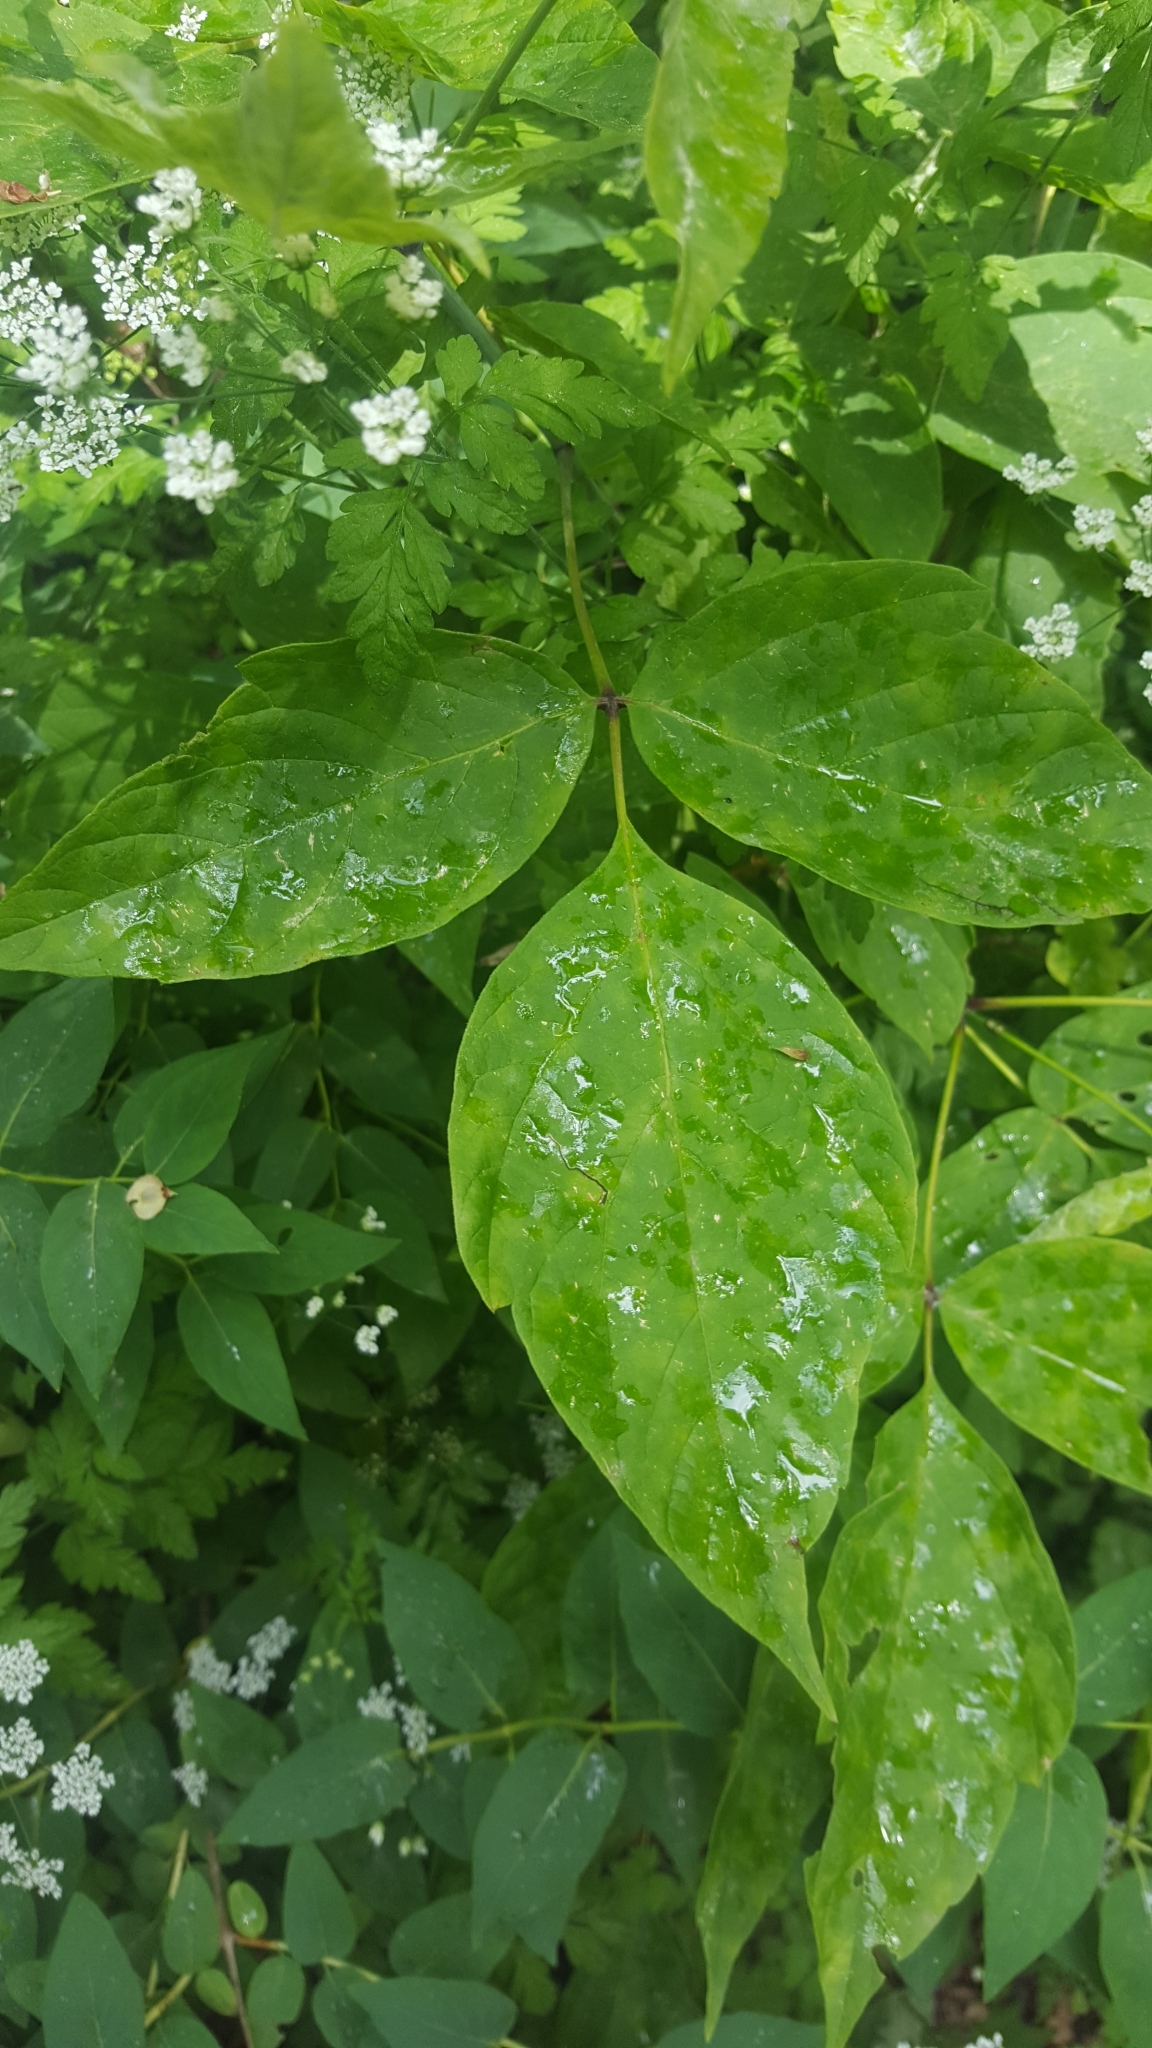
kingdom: Plantae
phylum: Tracheophyta
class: Magnoliopsida
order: Sapindales
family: Sapindaceae
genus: Acer
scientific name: Acer negundo
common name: Ashleaf maple
